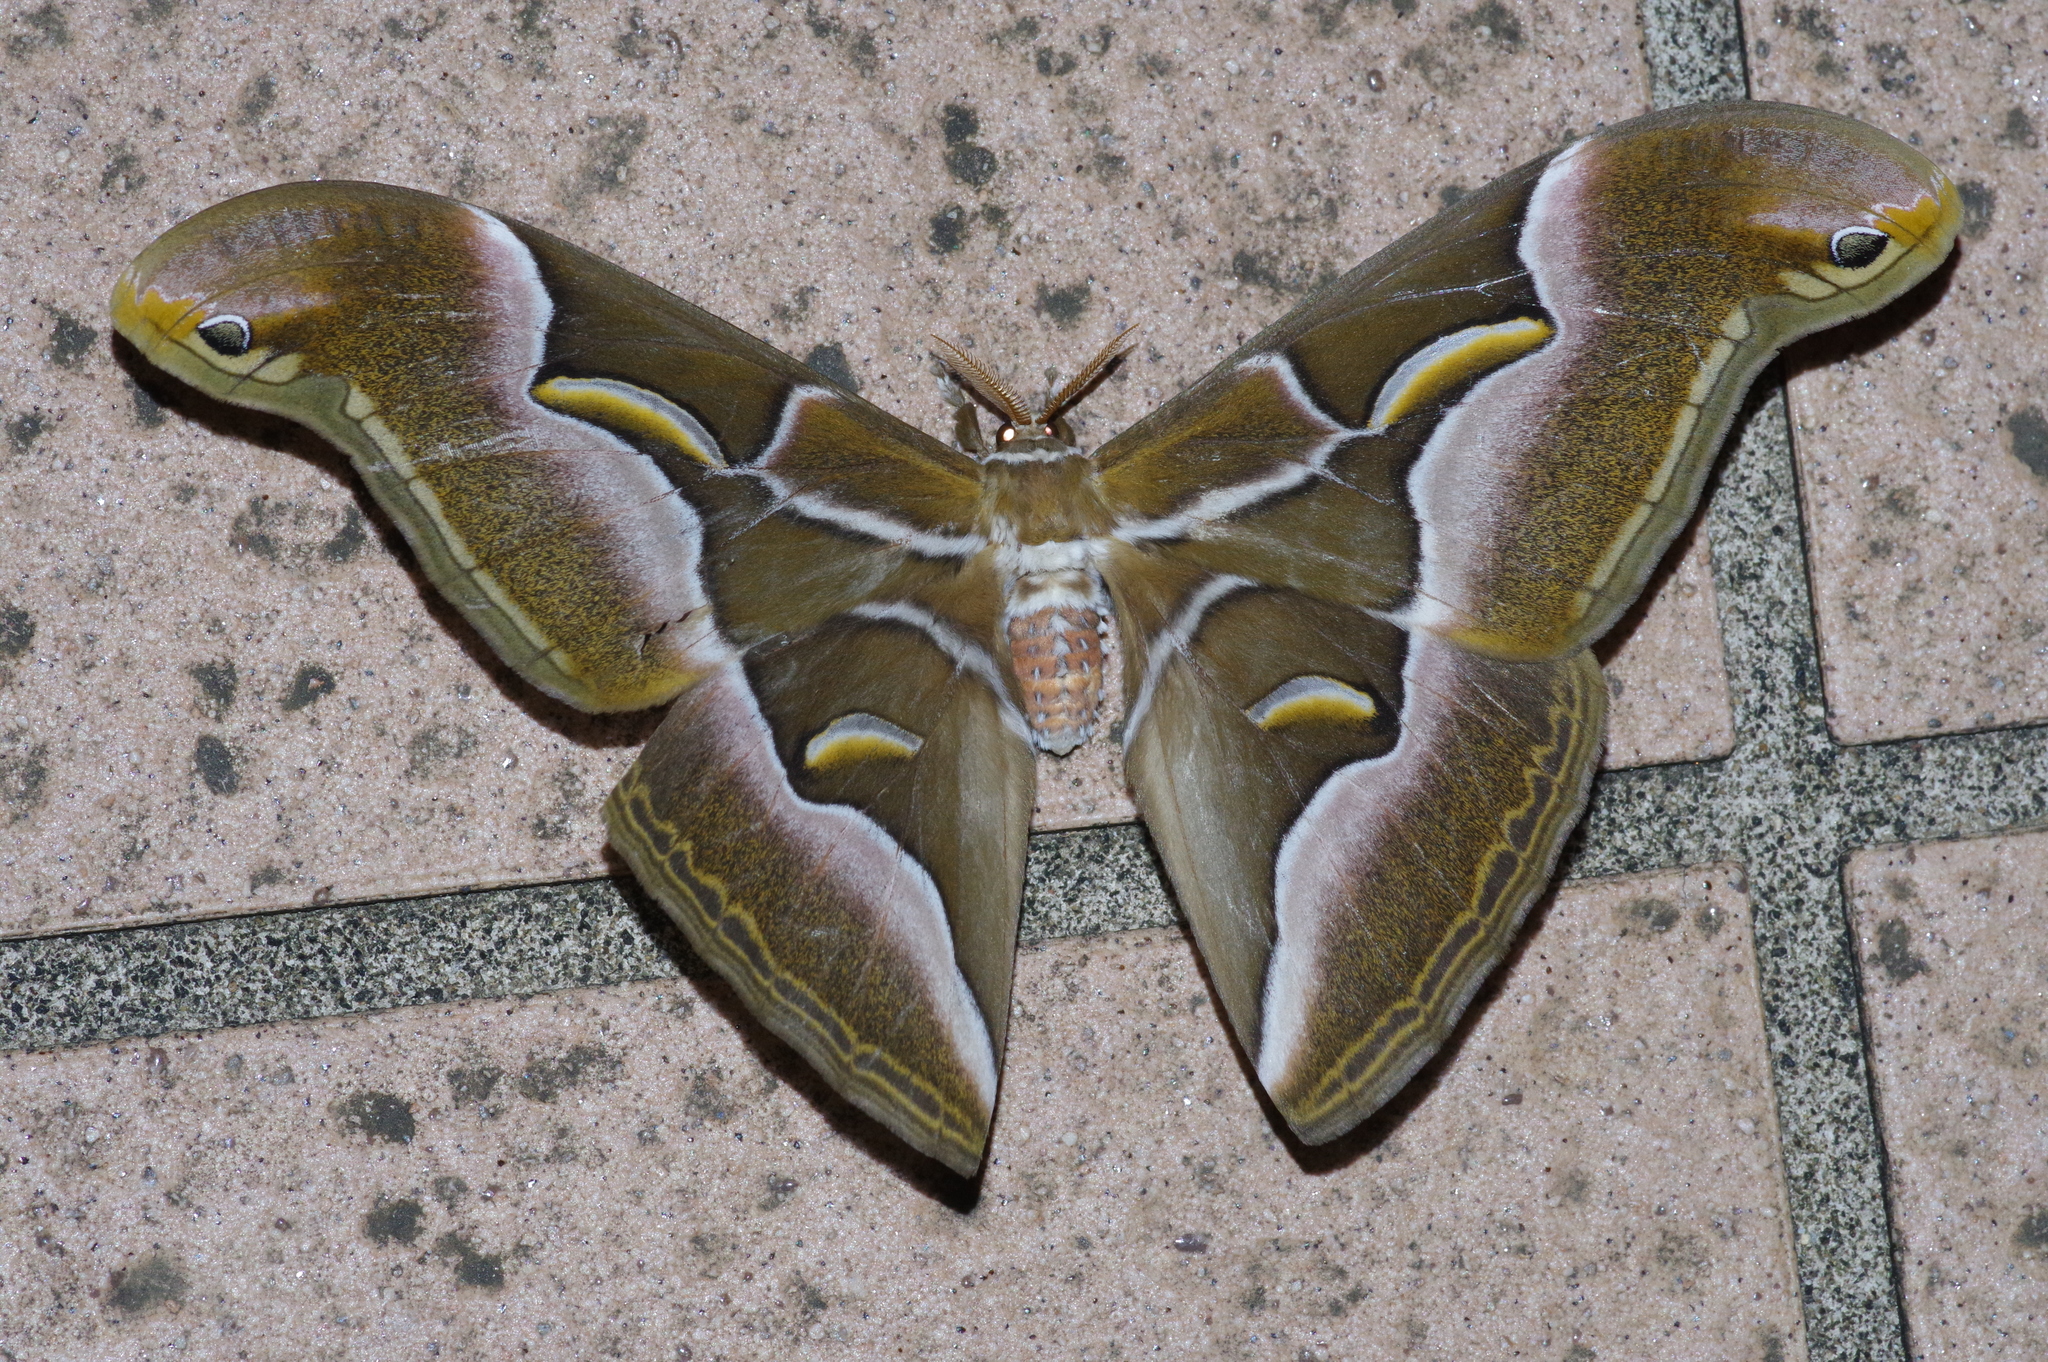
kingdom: Animalia
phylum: Arthropoda
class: Insecta
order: Lepidoptera
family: Saturniidae
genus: Samia
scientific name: Samia cynthia
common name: Ailanthus silkmoth
